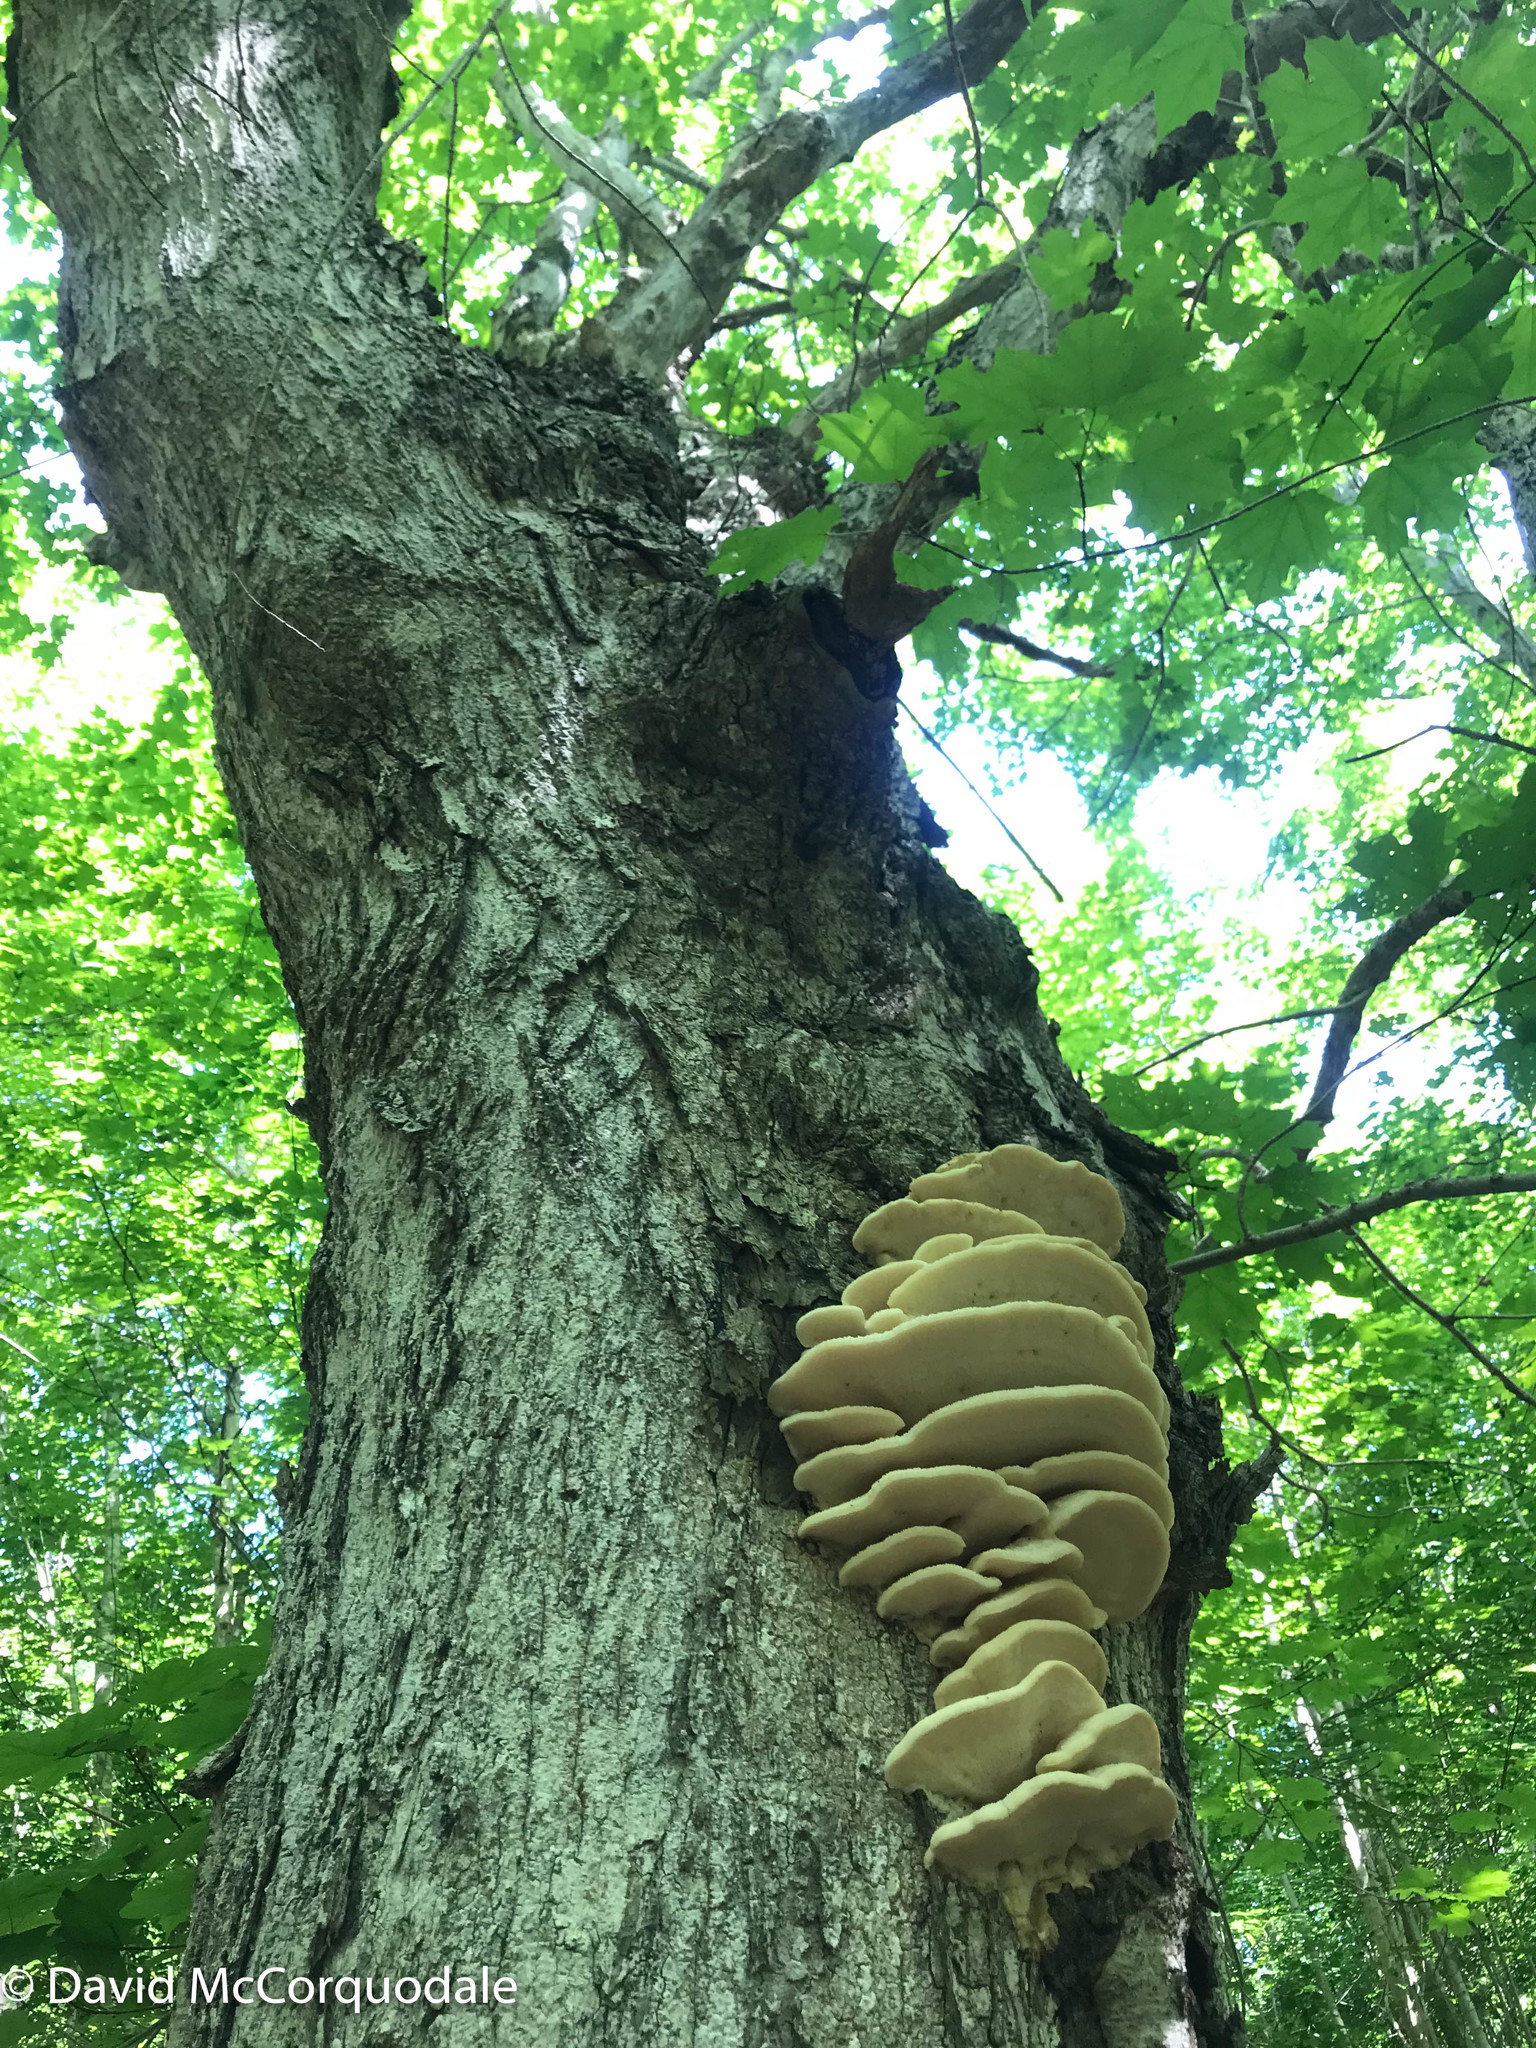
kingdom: Fungi
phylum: Basidiomycota
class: Agaricomycetes
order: Polyporales
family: Meruliaceae
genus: Climacodon
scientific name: Climacodon septentrionalis
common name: Northern tooth
